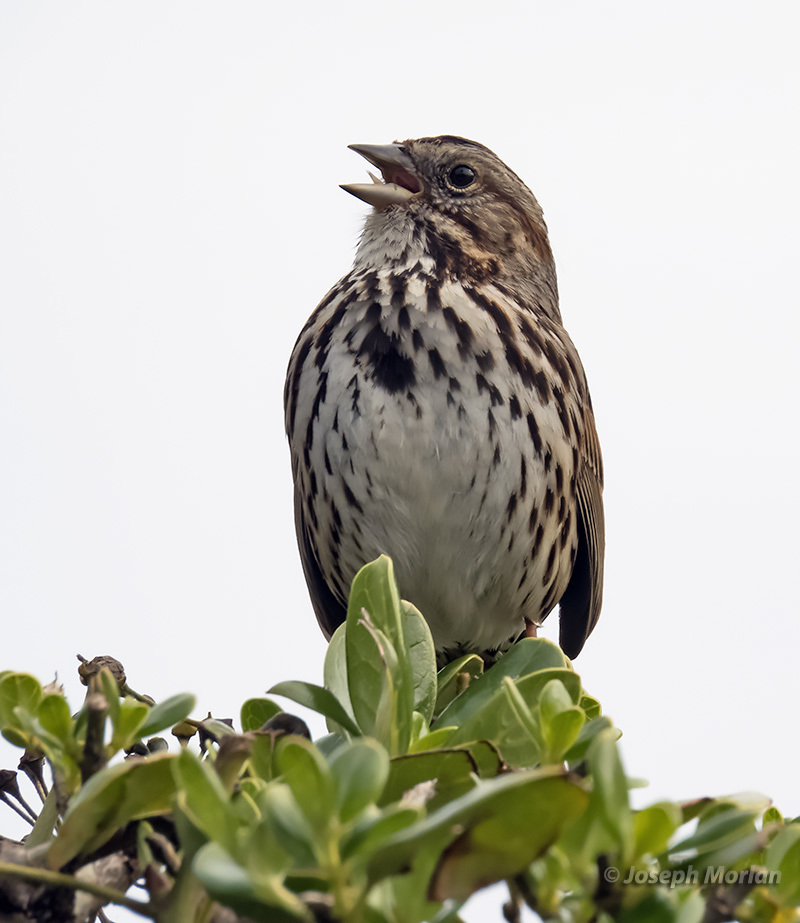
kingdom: Animalia
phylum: Chordata
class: Aves
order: Passeriformes
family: Passerellidae
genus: Melospiza
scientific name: Melospiza melodia
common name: Song sparrow
